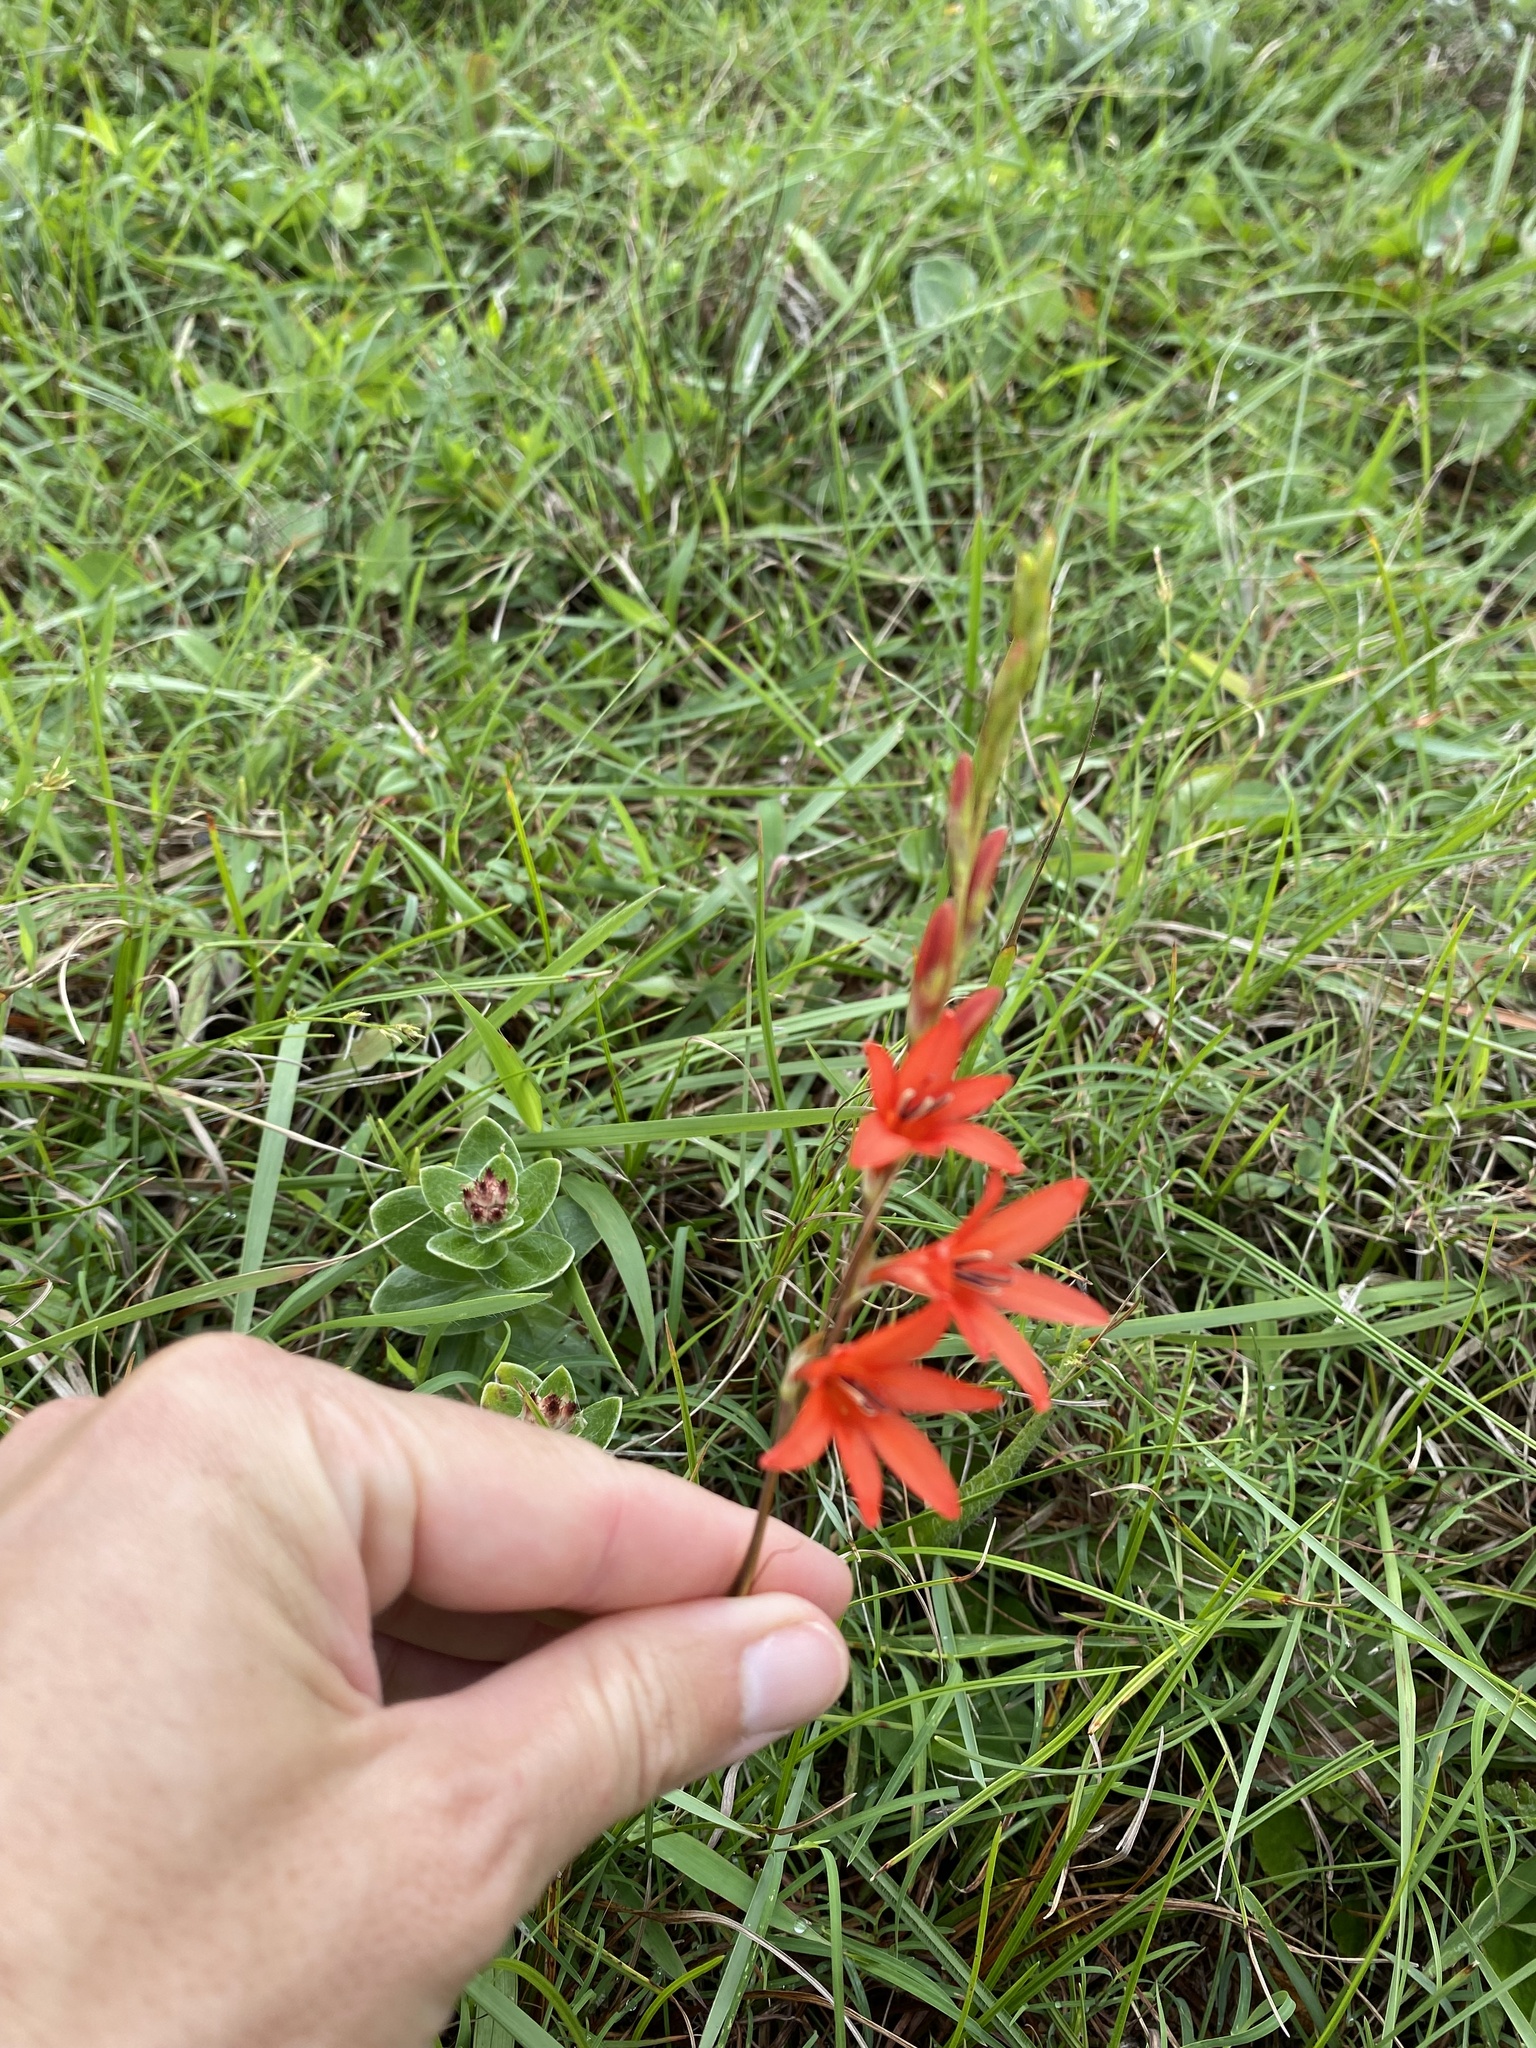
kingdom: Plantae
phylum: Tracheophyta
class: Liliopsida
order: Asparagales
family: Iridaceae
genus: Tritonia
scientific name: Tritonia disticha
